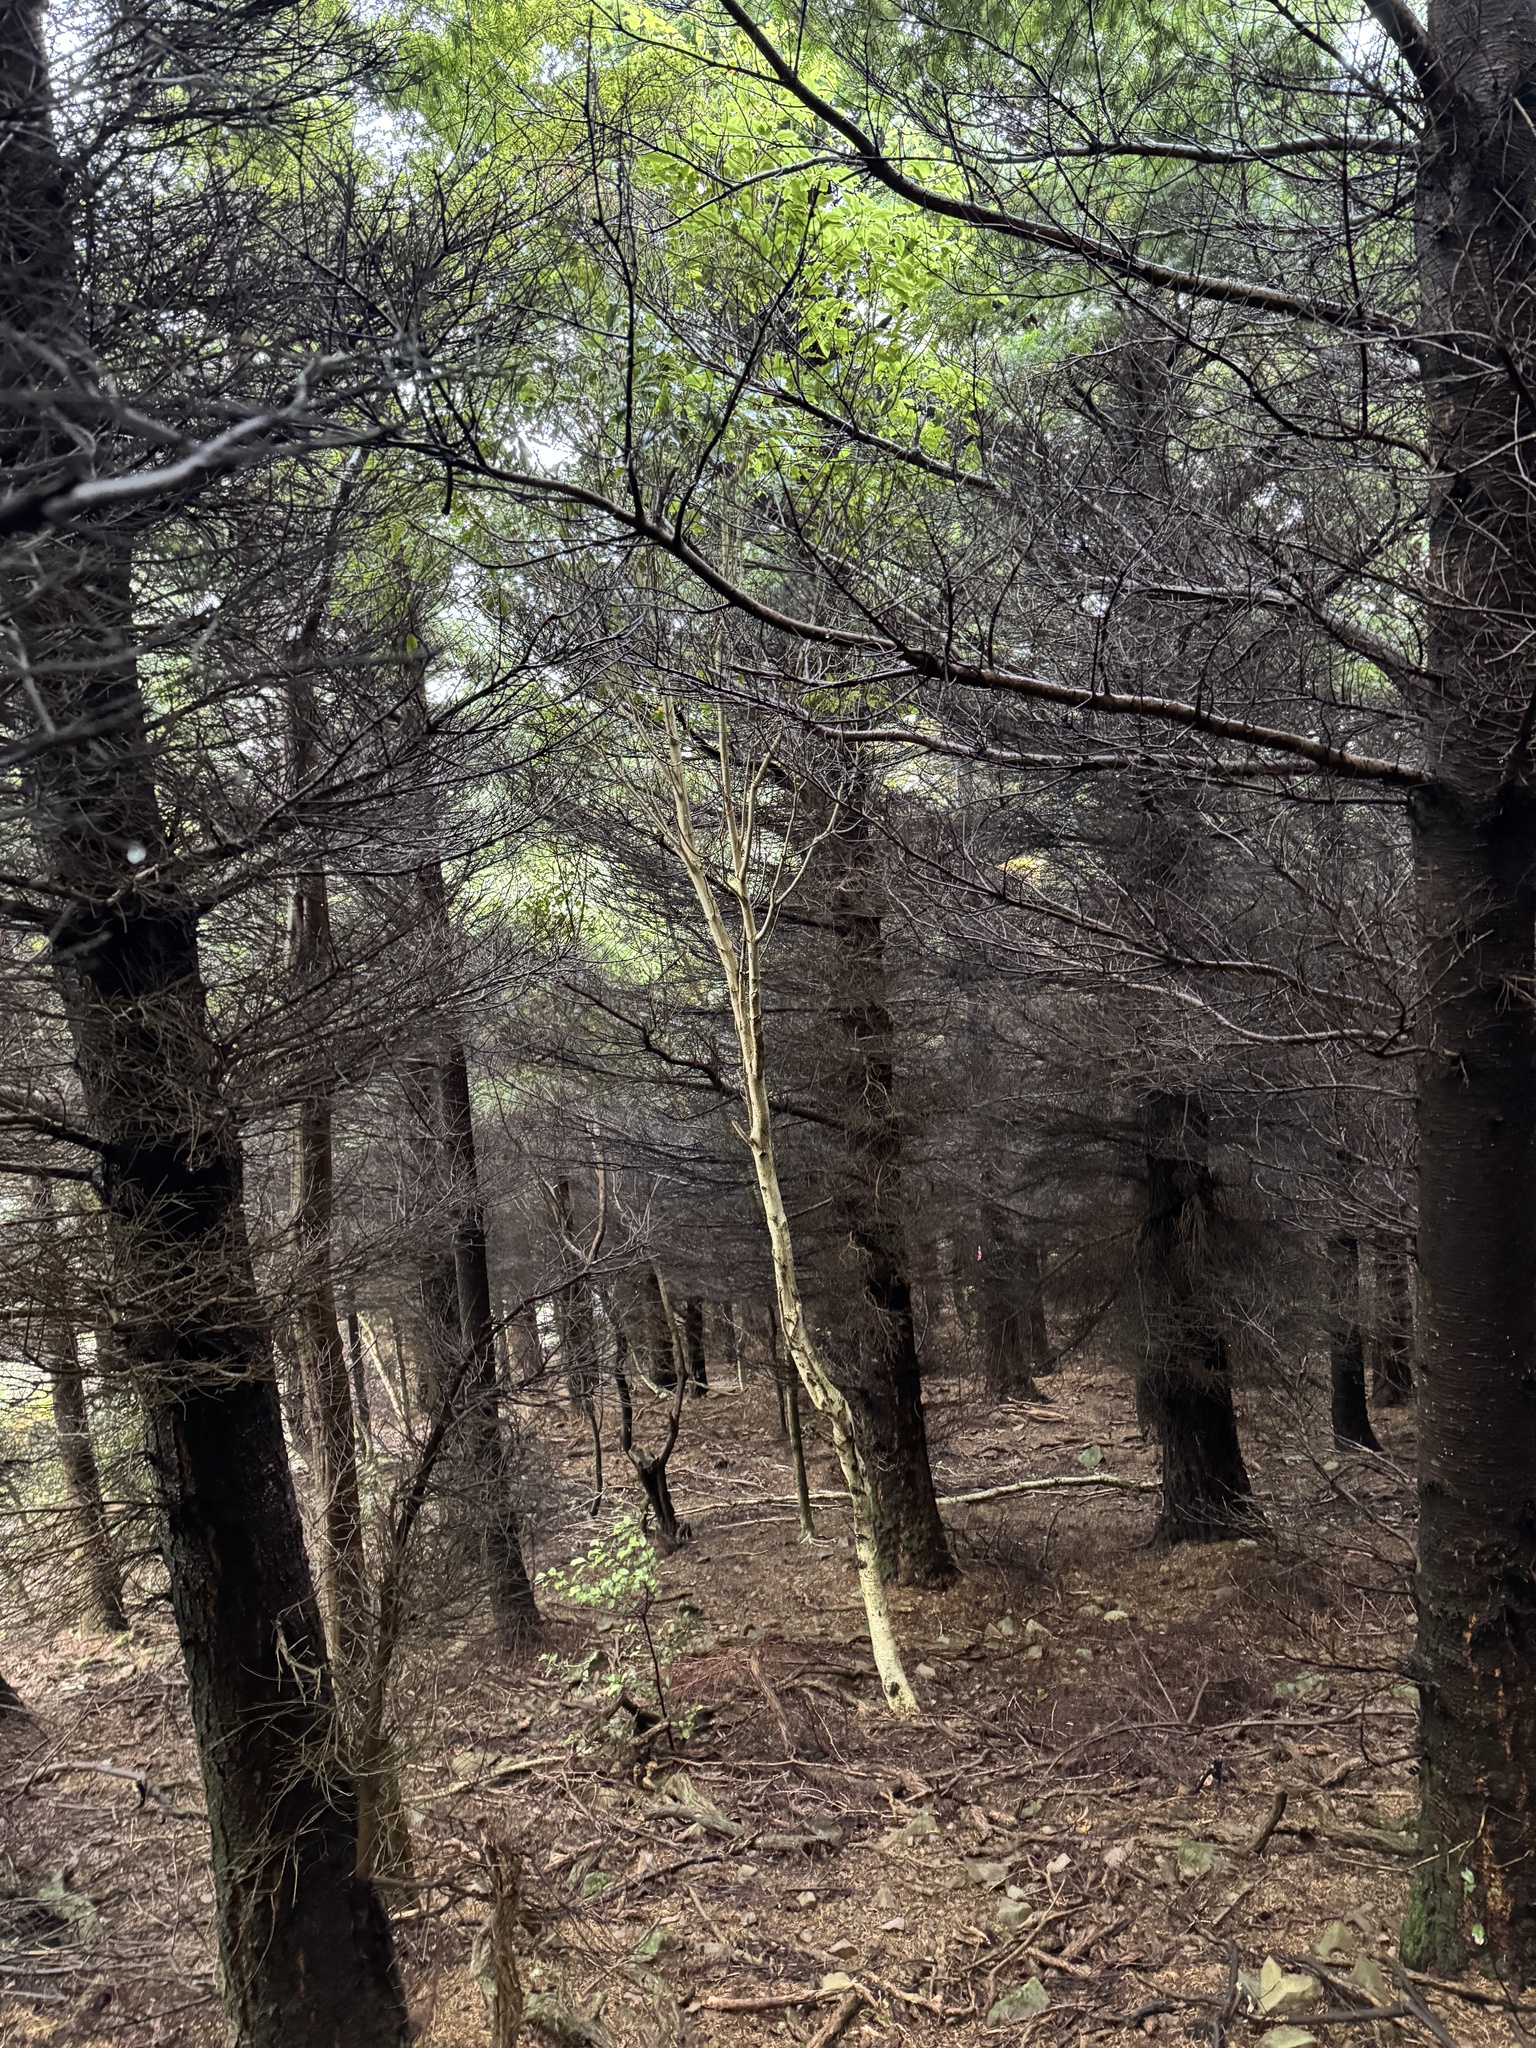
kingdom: Plantae
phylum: Tracheophyta
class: Magnoliopsida
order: Apiales
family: Pittosporaceae
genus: Pittosporum
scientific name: Pittosporum eugenioides
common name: Lemonwood
